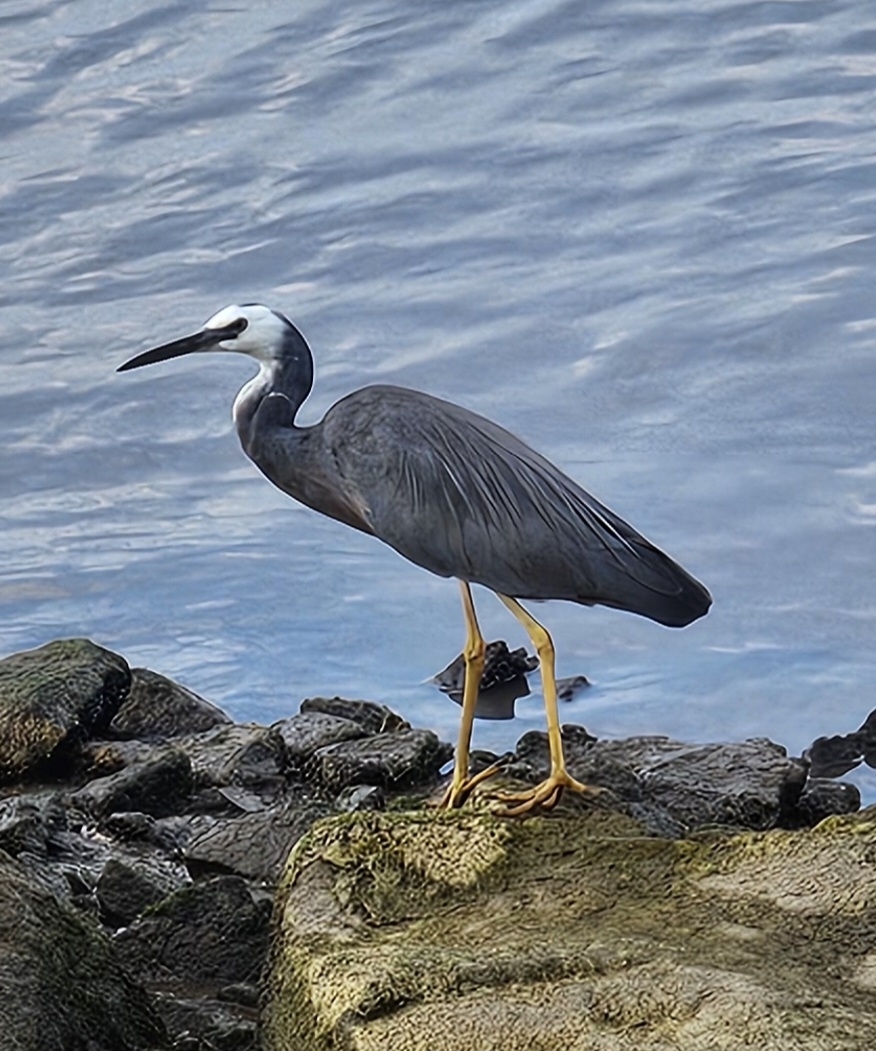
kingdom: Animalia
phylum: Chordata
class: Aves
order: Pelecaniformes
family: Ardeidae
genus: Egretta
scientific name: Egretta novaehollandiae
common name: White-faced heron
